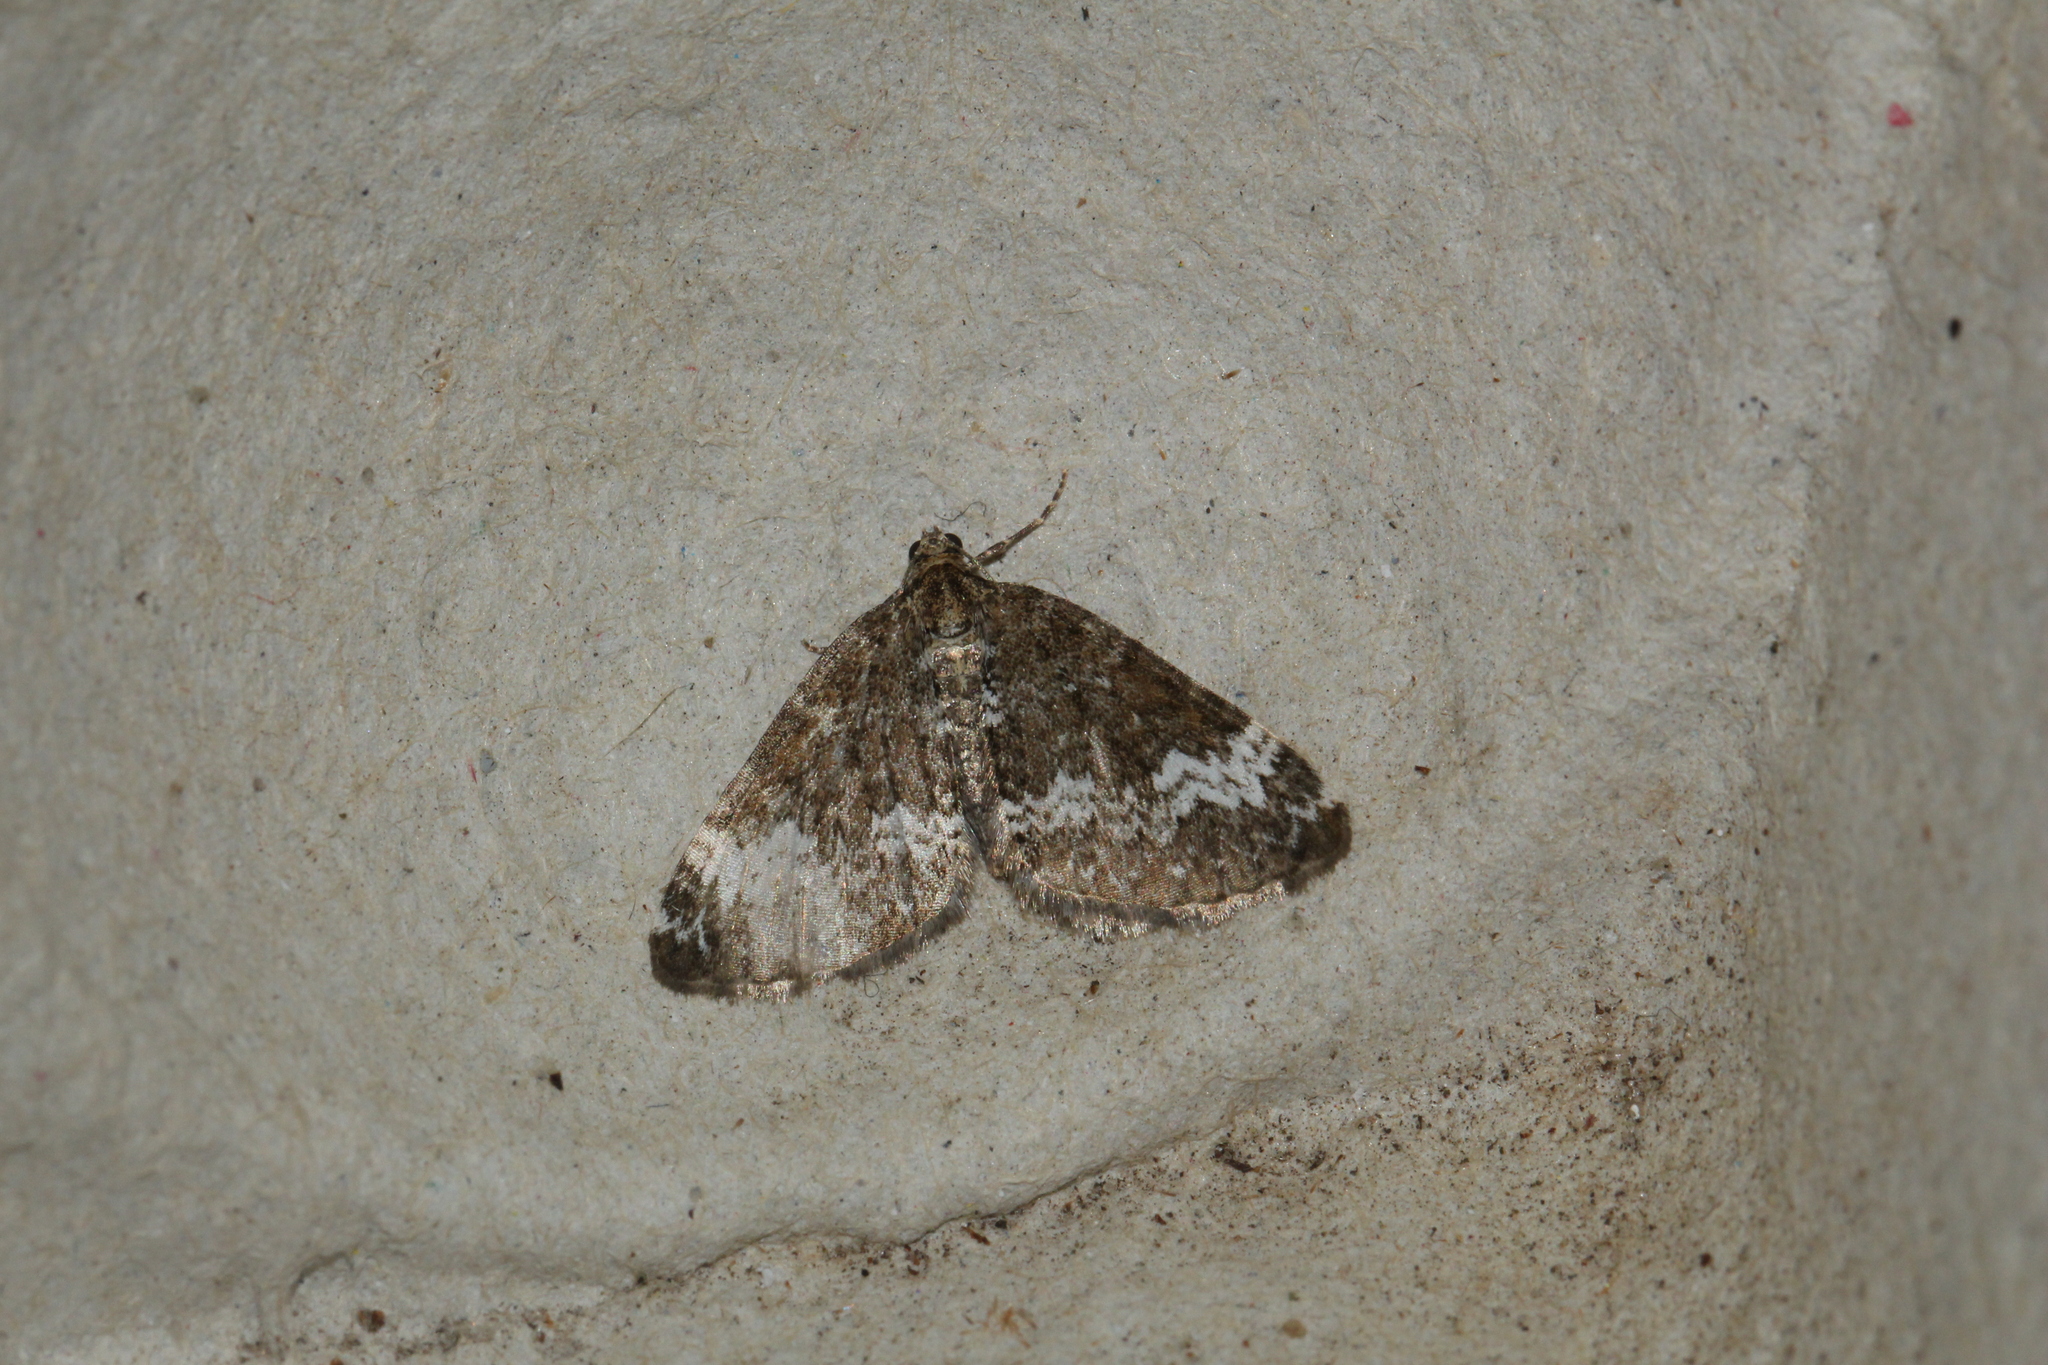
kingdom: Animalia
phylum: Arthropoda
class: Insecta
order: Lepidoptera
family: Geometridae
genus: Perizoma
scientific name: Perizoma alchemillata
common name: Small rivulet
